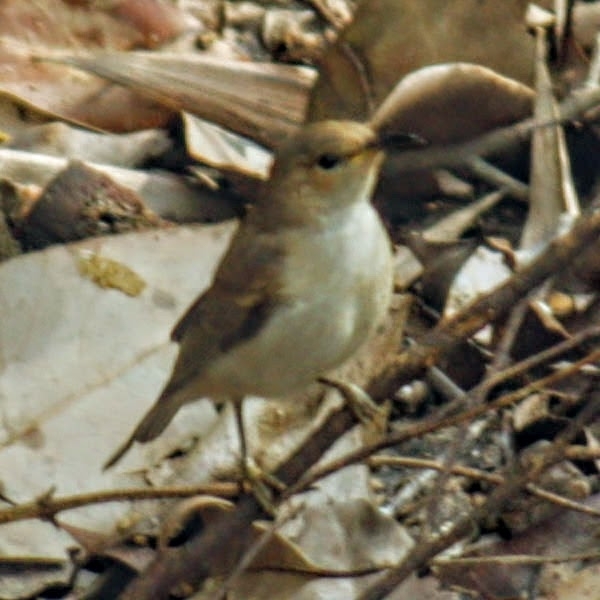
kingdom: Animalia
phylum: Chordata
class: Aves
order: Passeriformes
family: Meliphagidae
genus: Myzomela
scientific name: Myzomela sanguinolenta
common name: Scarlet myzomela
